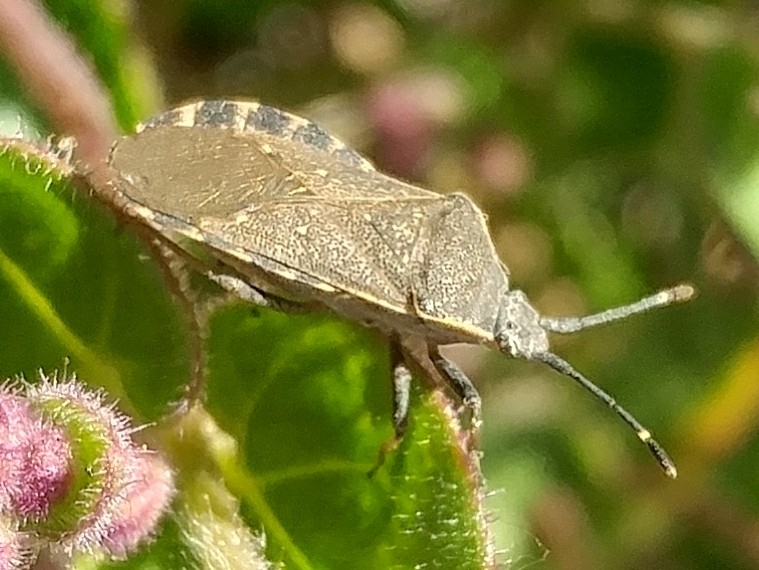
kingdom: Animalia
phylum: Arthropoda
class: Insecta
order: Hemiptera
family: Coreidae
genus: Catorhintha
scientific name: Catorhintha apicalis
